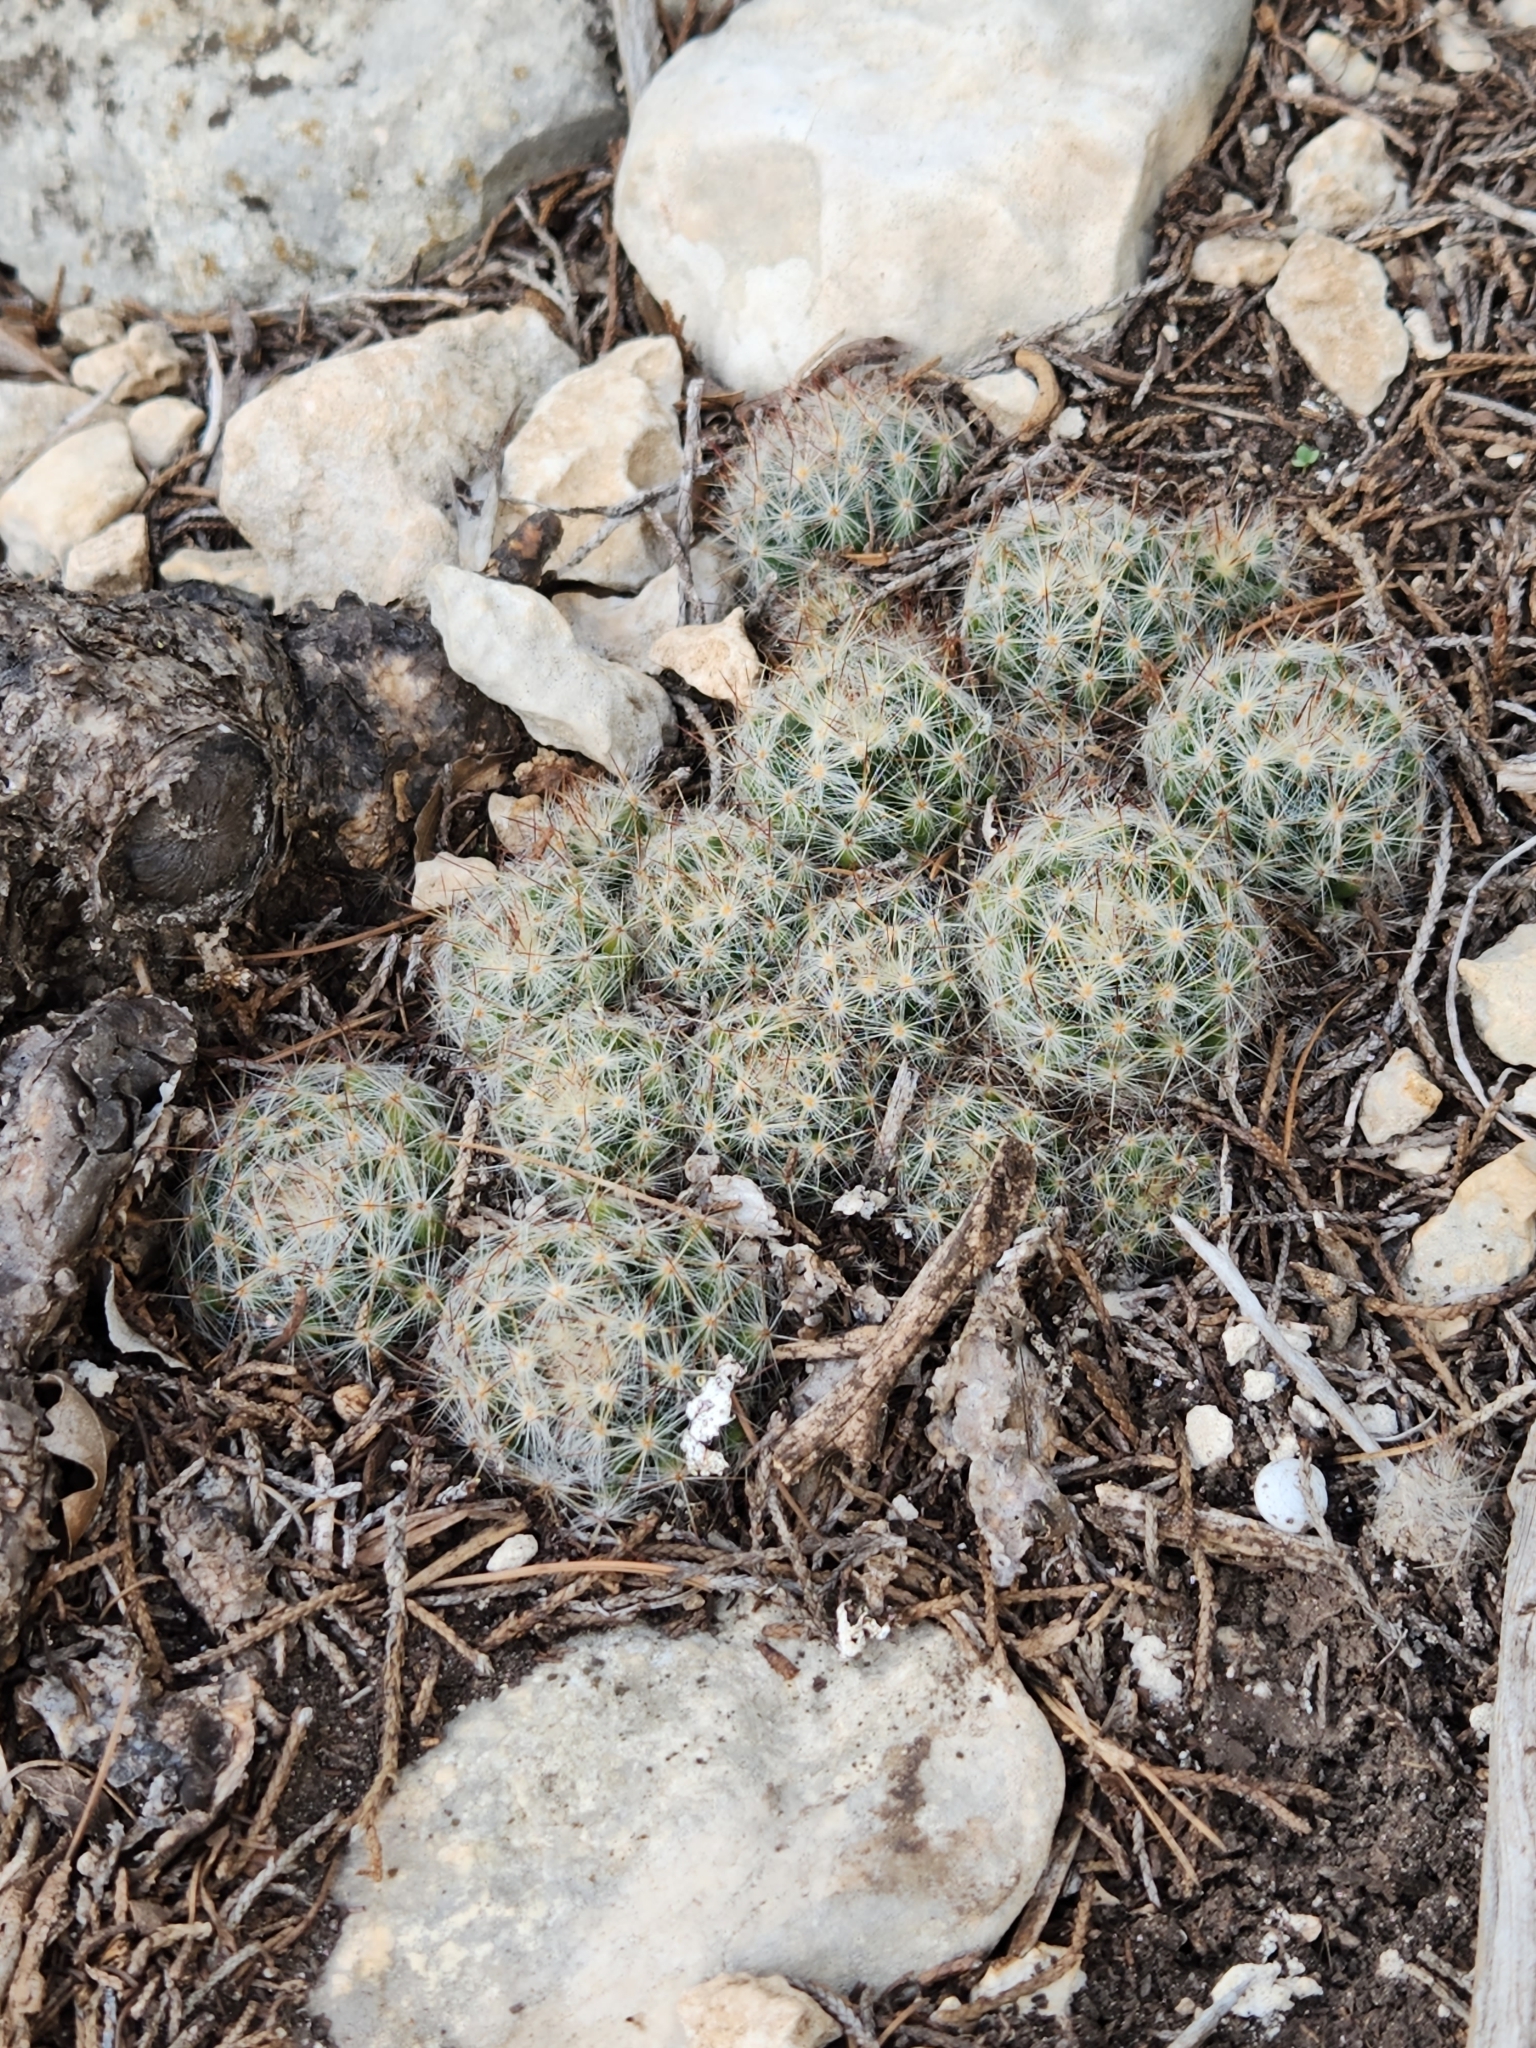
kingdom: Plantae
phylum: Tracheophyta
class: Magnoliopsida
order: Caryophyllales
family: Cactaceae
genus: Mammillaria
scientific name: Mammillaria prolifera
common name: Texas nipple cactus
